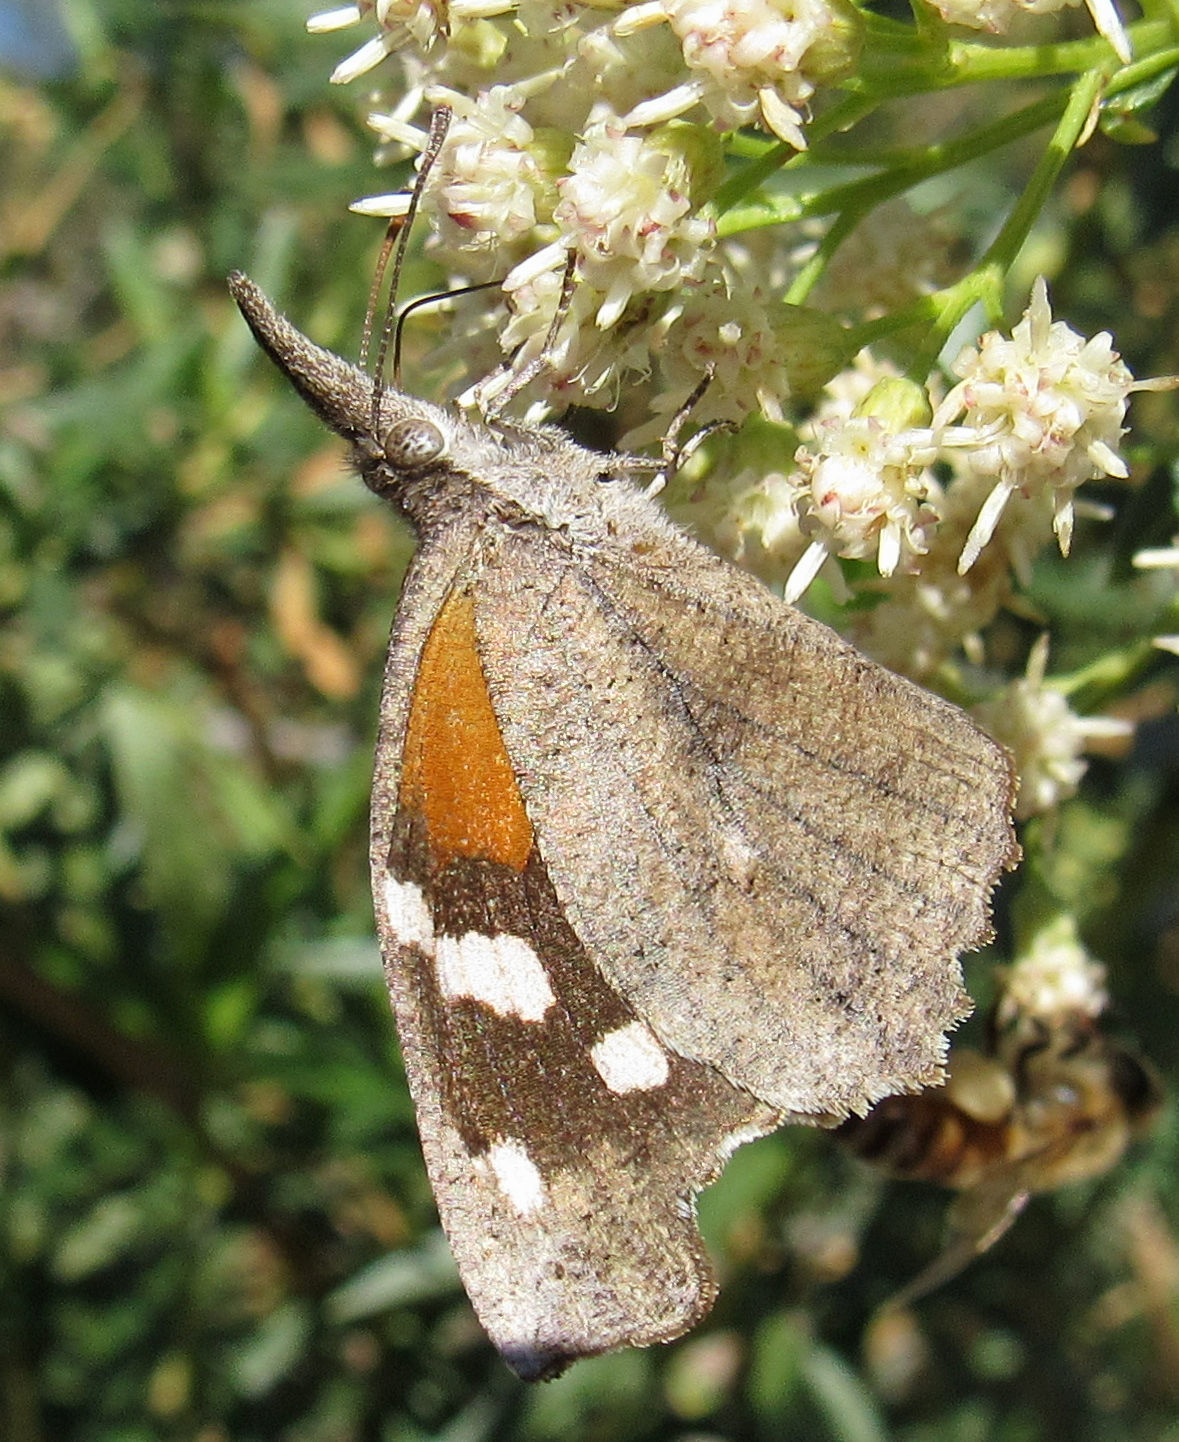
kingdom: Animalia
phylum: Arthropoda
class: Insecta
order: Lepidoptera
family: Nymphalidae
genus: Libytheana
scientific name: Libytheana carinenta
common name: American snout
